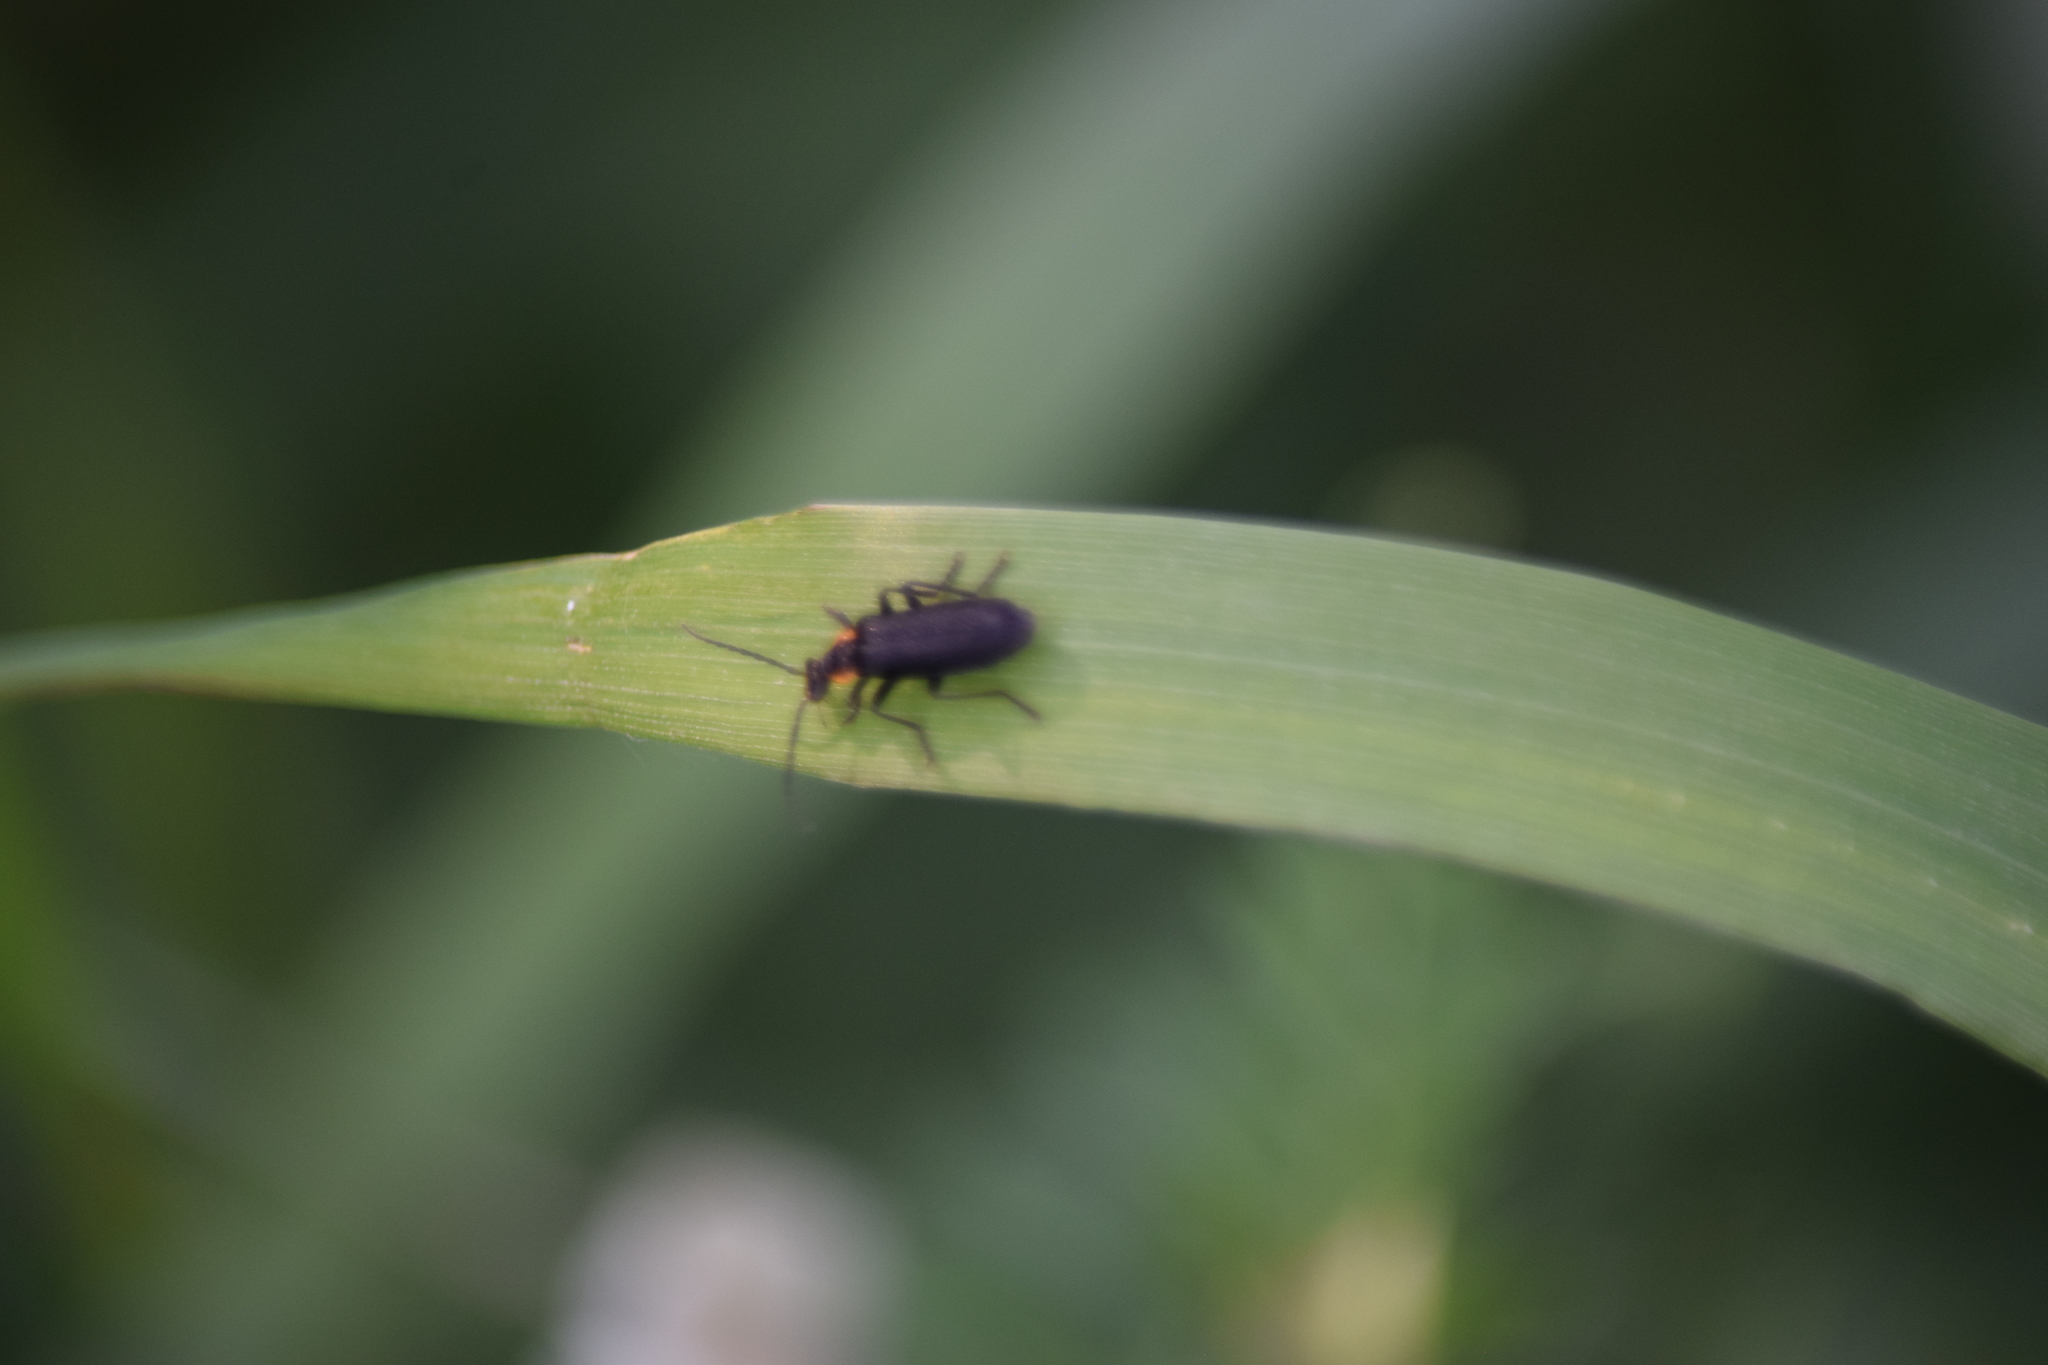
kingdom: Animalia
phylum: Arthropoda
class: Insecta
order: Coleoptera
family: Cantharidae
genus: Rhaxonycha
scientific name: Rhaxonycha carolina
